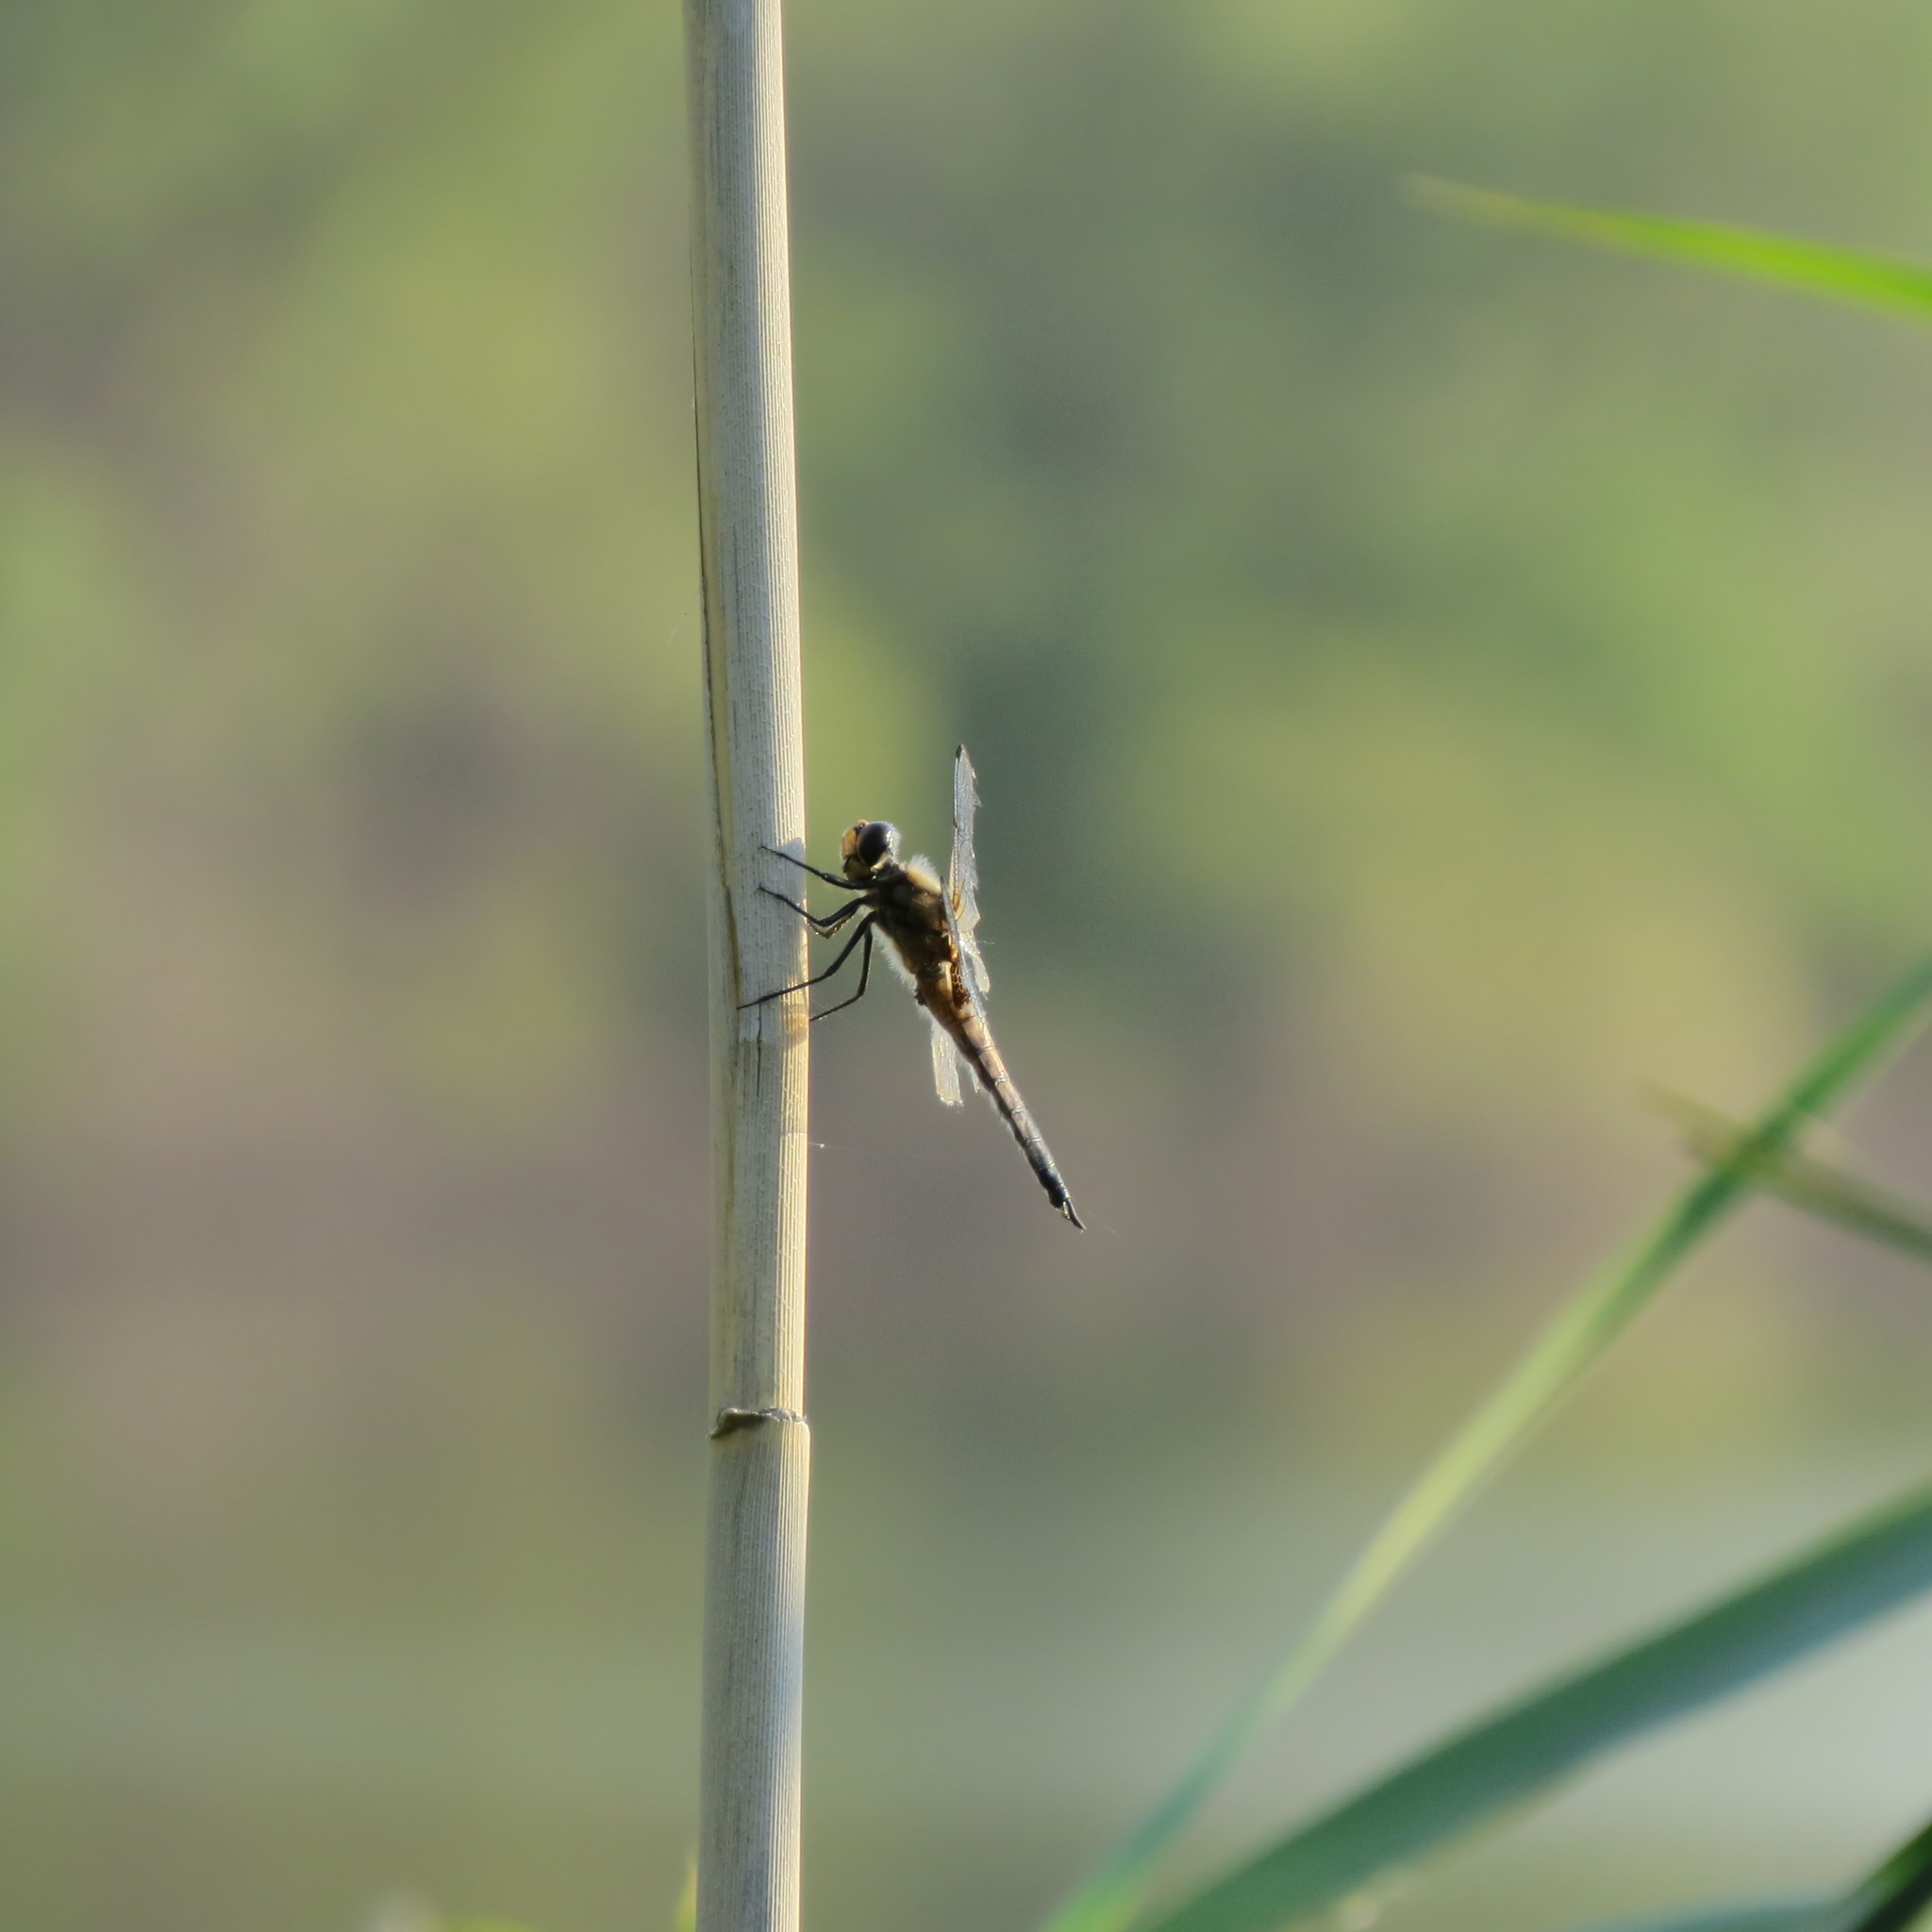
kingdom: Animalia
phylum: Arthropoda
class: Insecta
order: Odonata
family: Libellulidae
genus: Libellula
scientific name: Libellula quadrimaculata
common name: Four-spotted chaser
